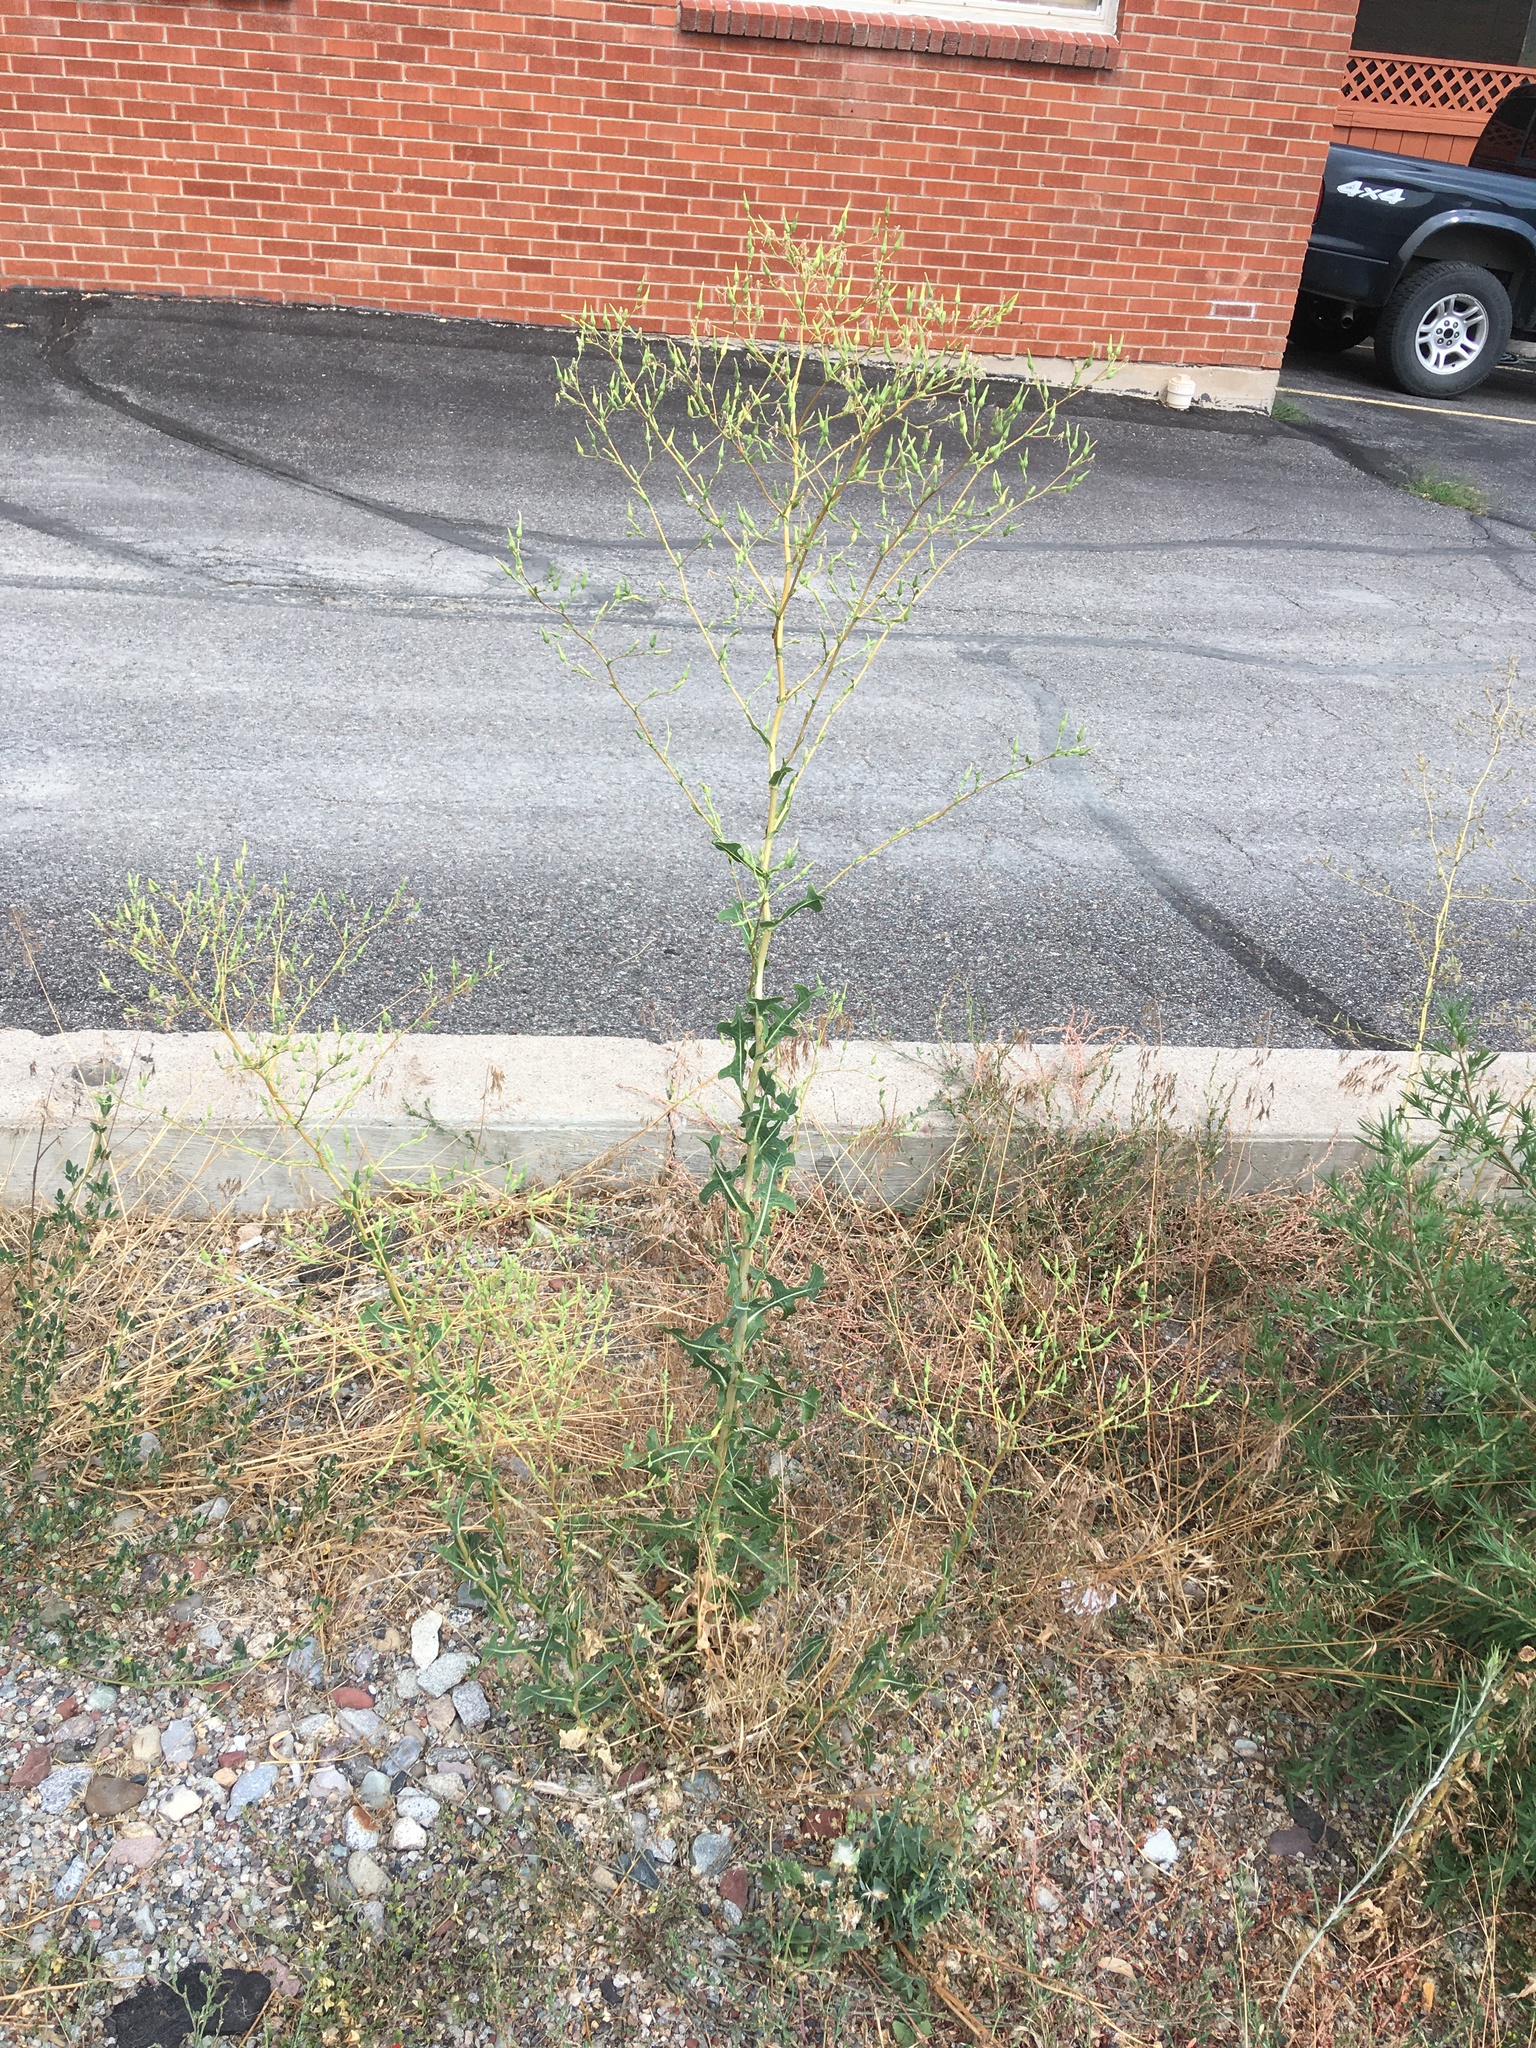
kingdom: Plantae
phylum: Tracheophyta
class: Magnoliopsida
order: Asterales
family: Asteraceae
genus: Lactuca
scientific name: Lactuca serriola
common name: Prickly lettuce
